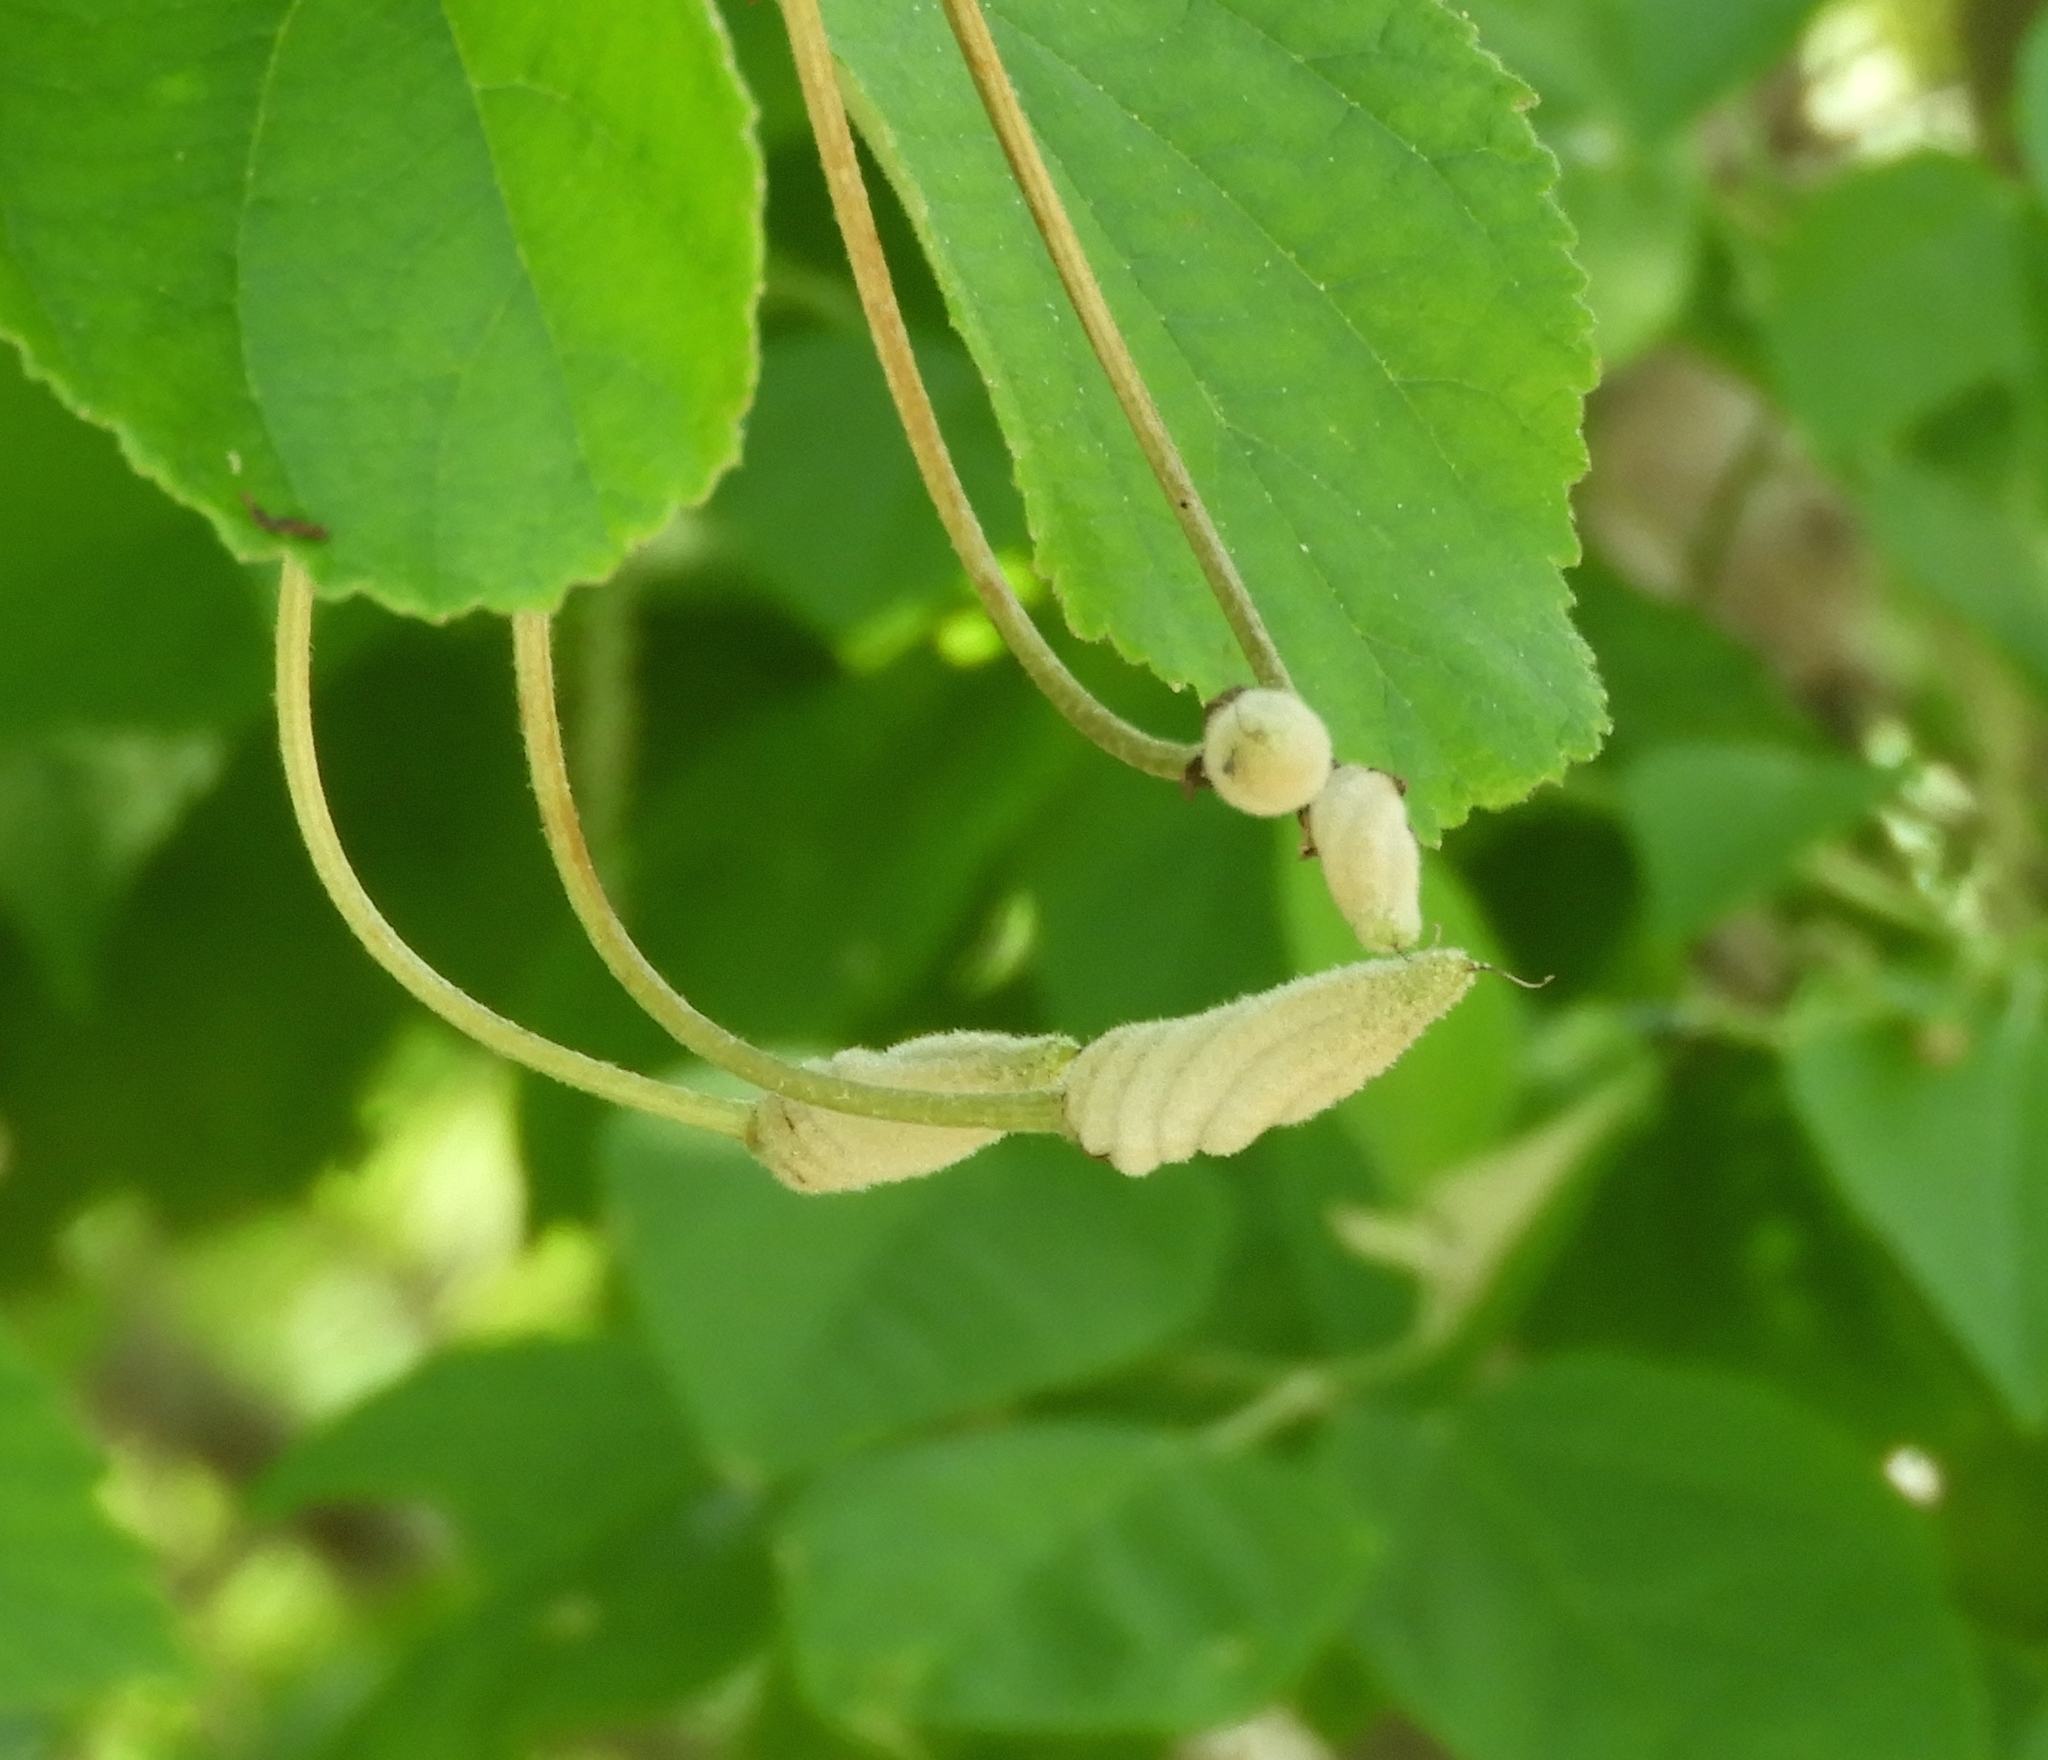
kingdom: Plantae
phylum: Tracheophyta
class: Magnoliopsida
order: Malvales
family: Malvaceae
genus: Helicteres
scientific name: Helicteres baruensis
